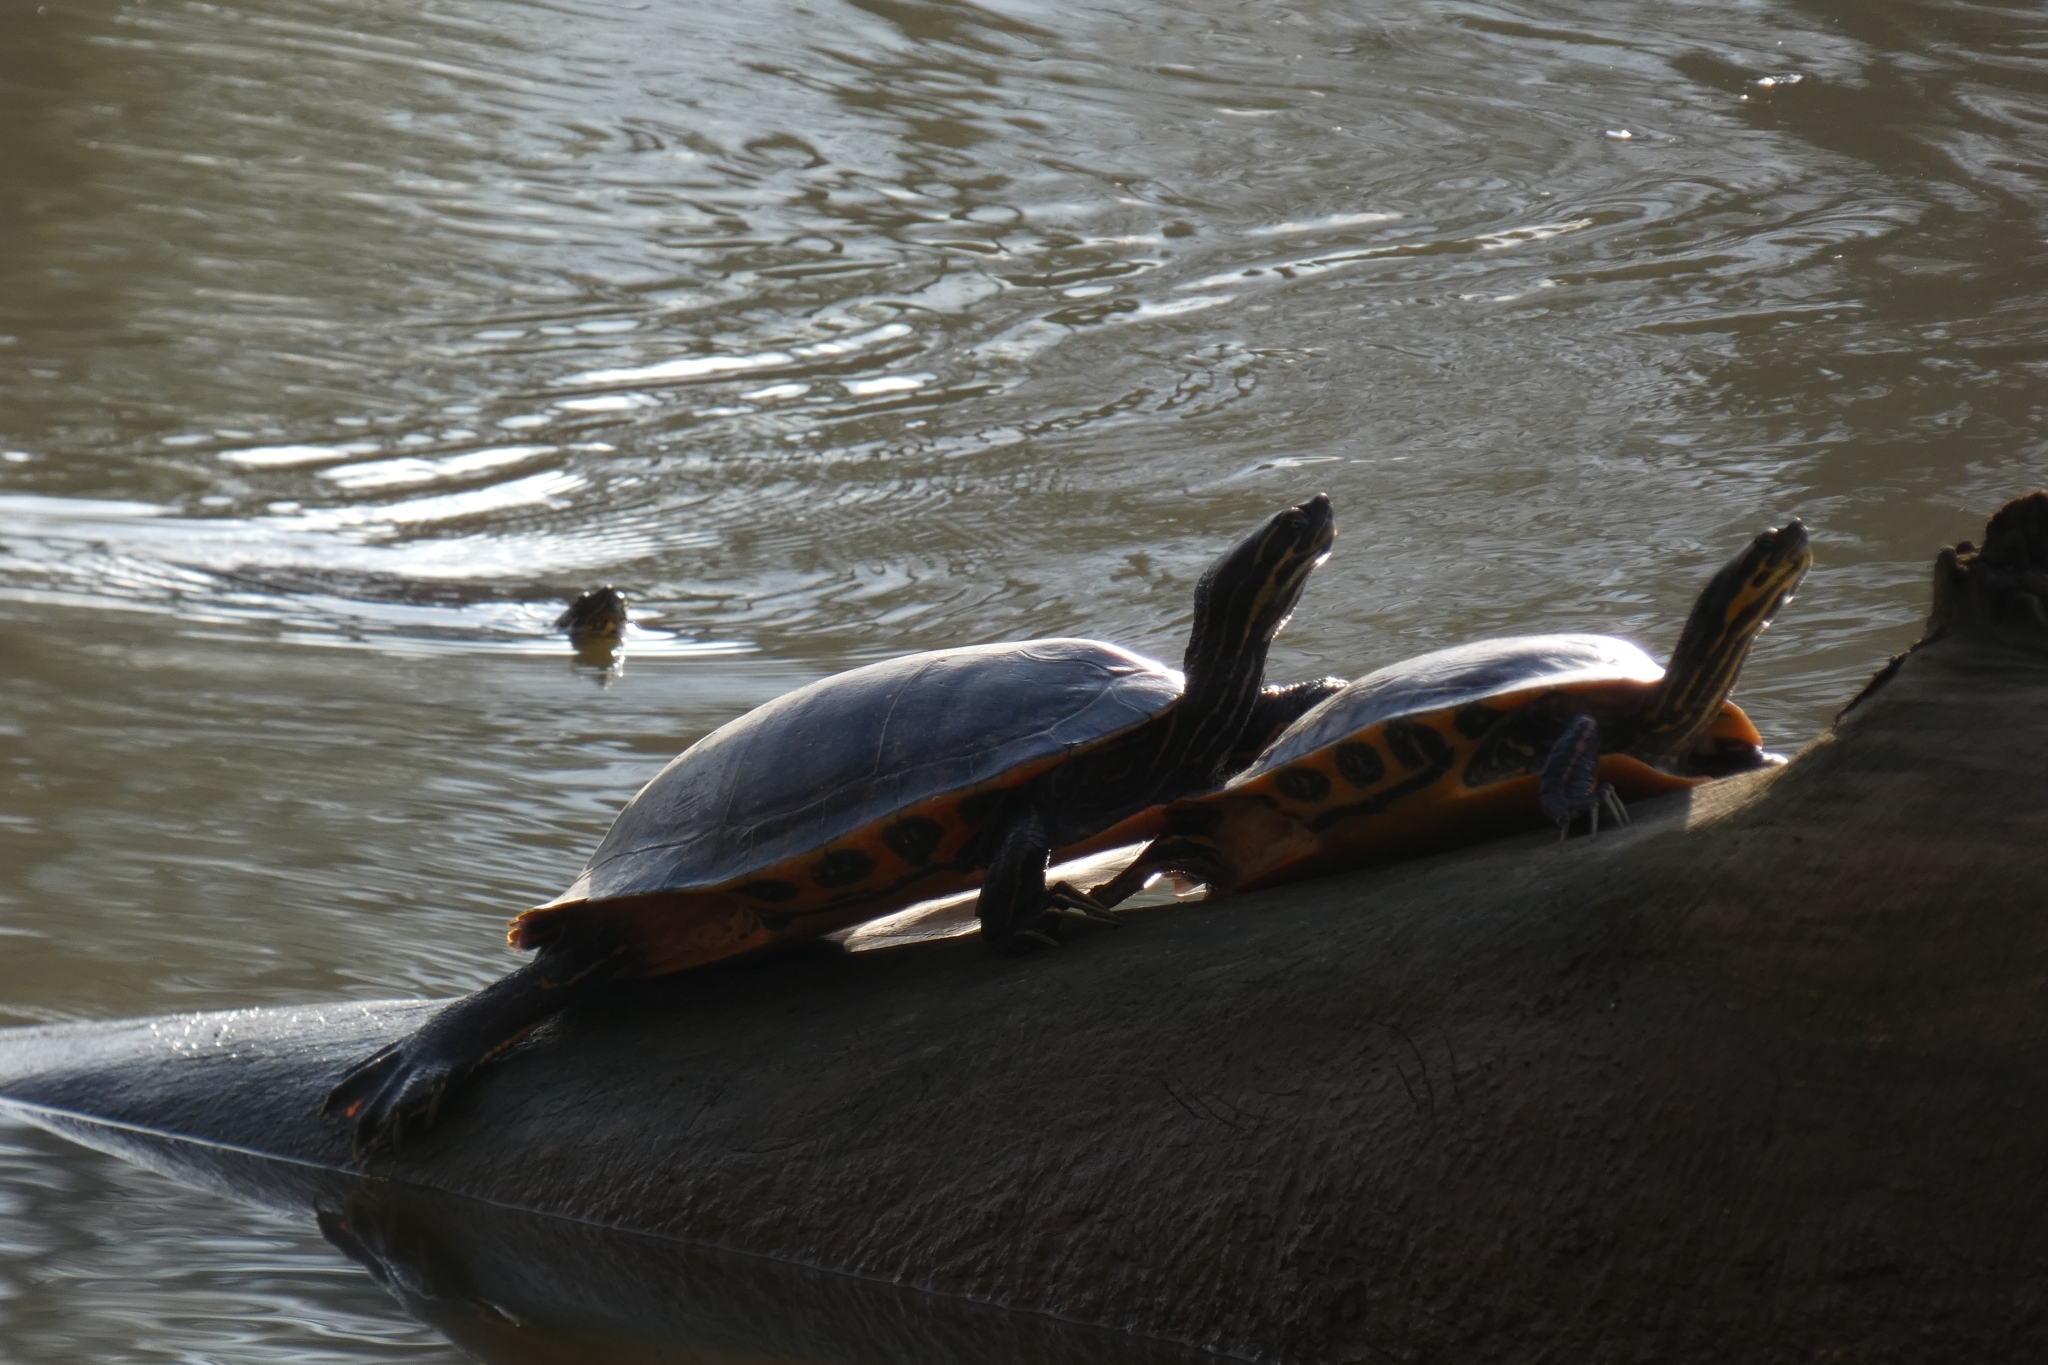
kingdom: Animalia
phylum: Chordata
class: Testudines
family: Emydidae
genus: Pseudemys
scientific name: Pseudemys concinna
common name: Eastern river cooter
